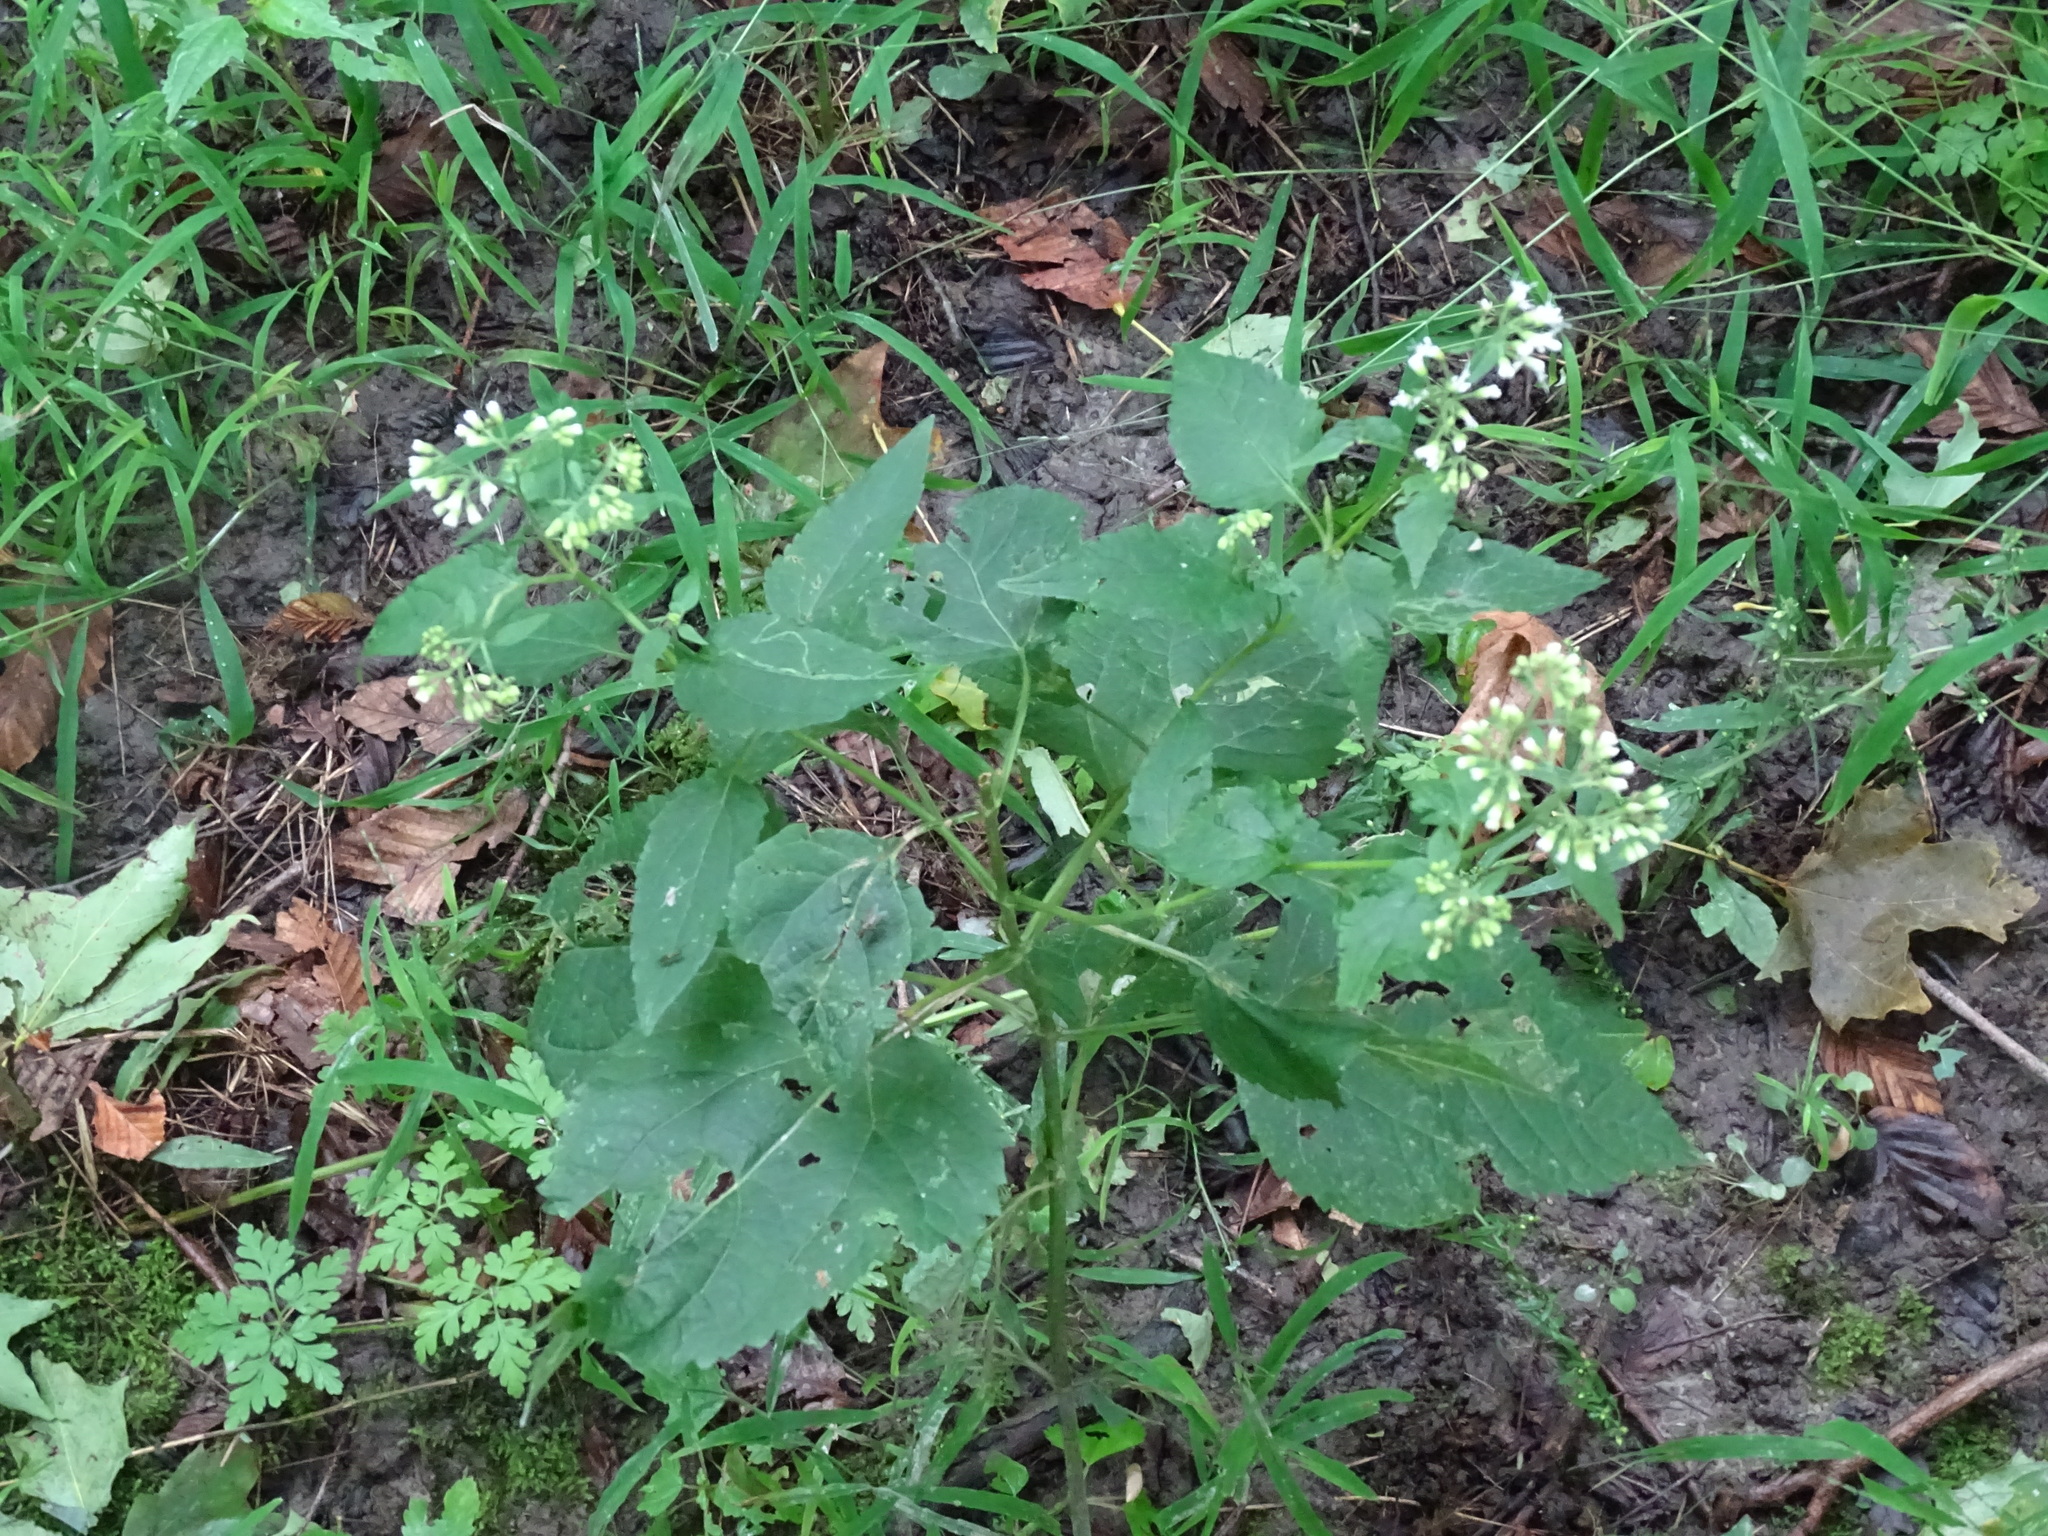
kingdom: Plantae
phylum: Tracheophyta
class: Magnoliopsida
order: Asterales
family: Asteraceae
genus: Ageratina
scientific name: Ageratina altissima
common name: White snakeroot
